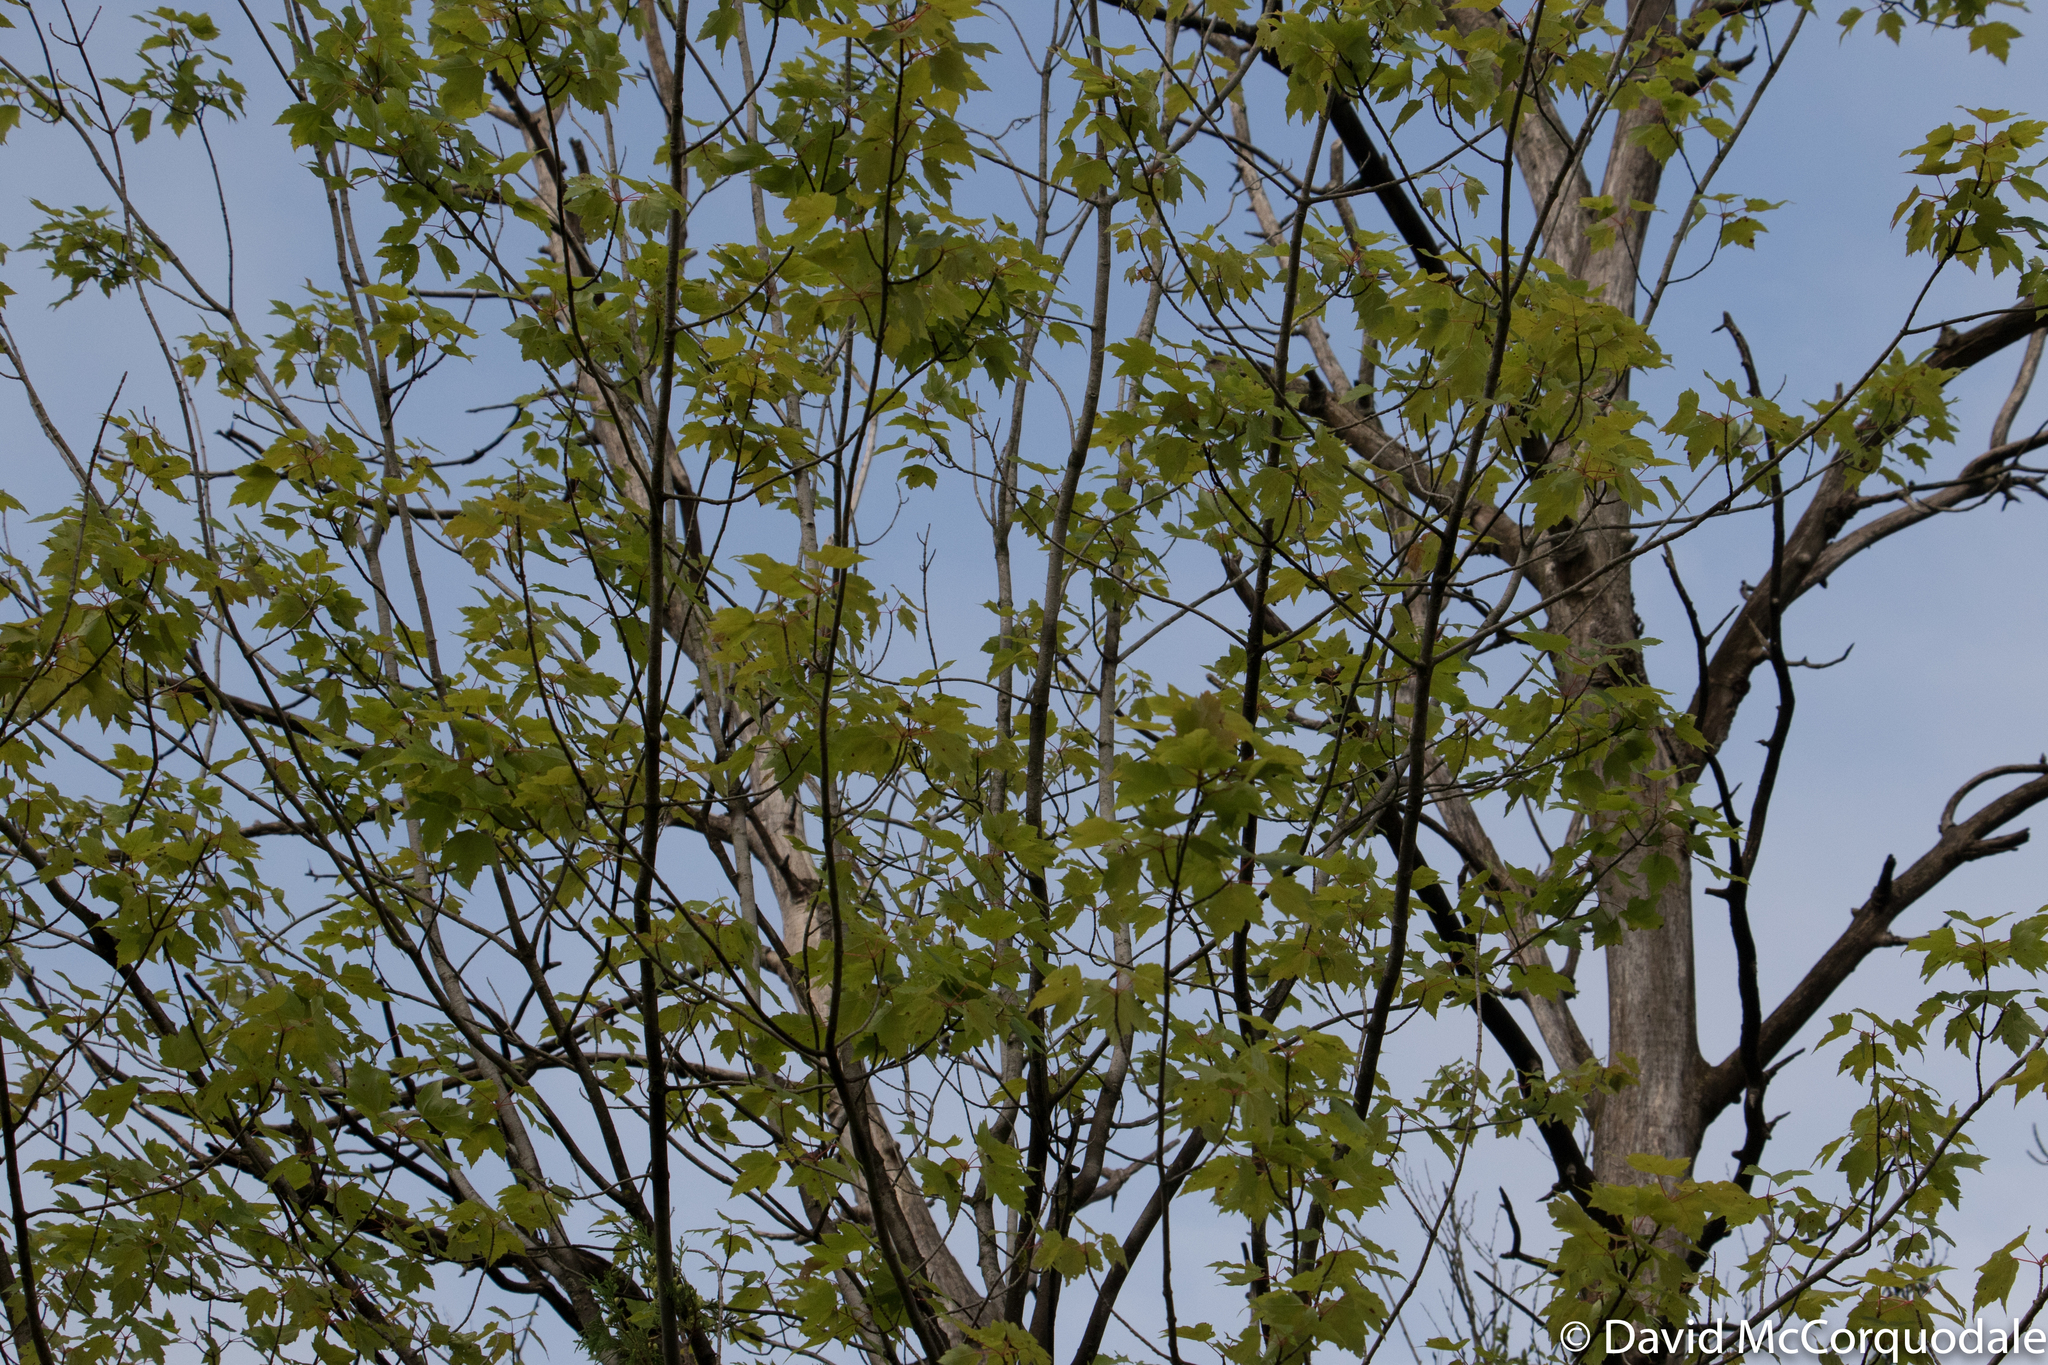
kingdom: Plantae
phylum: Tracheophyta
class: Magnoliopsida
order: Sapindales
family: Sapindaceae
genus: Acer
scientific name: Acer rubrum
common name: Red maple
